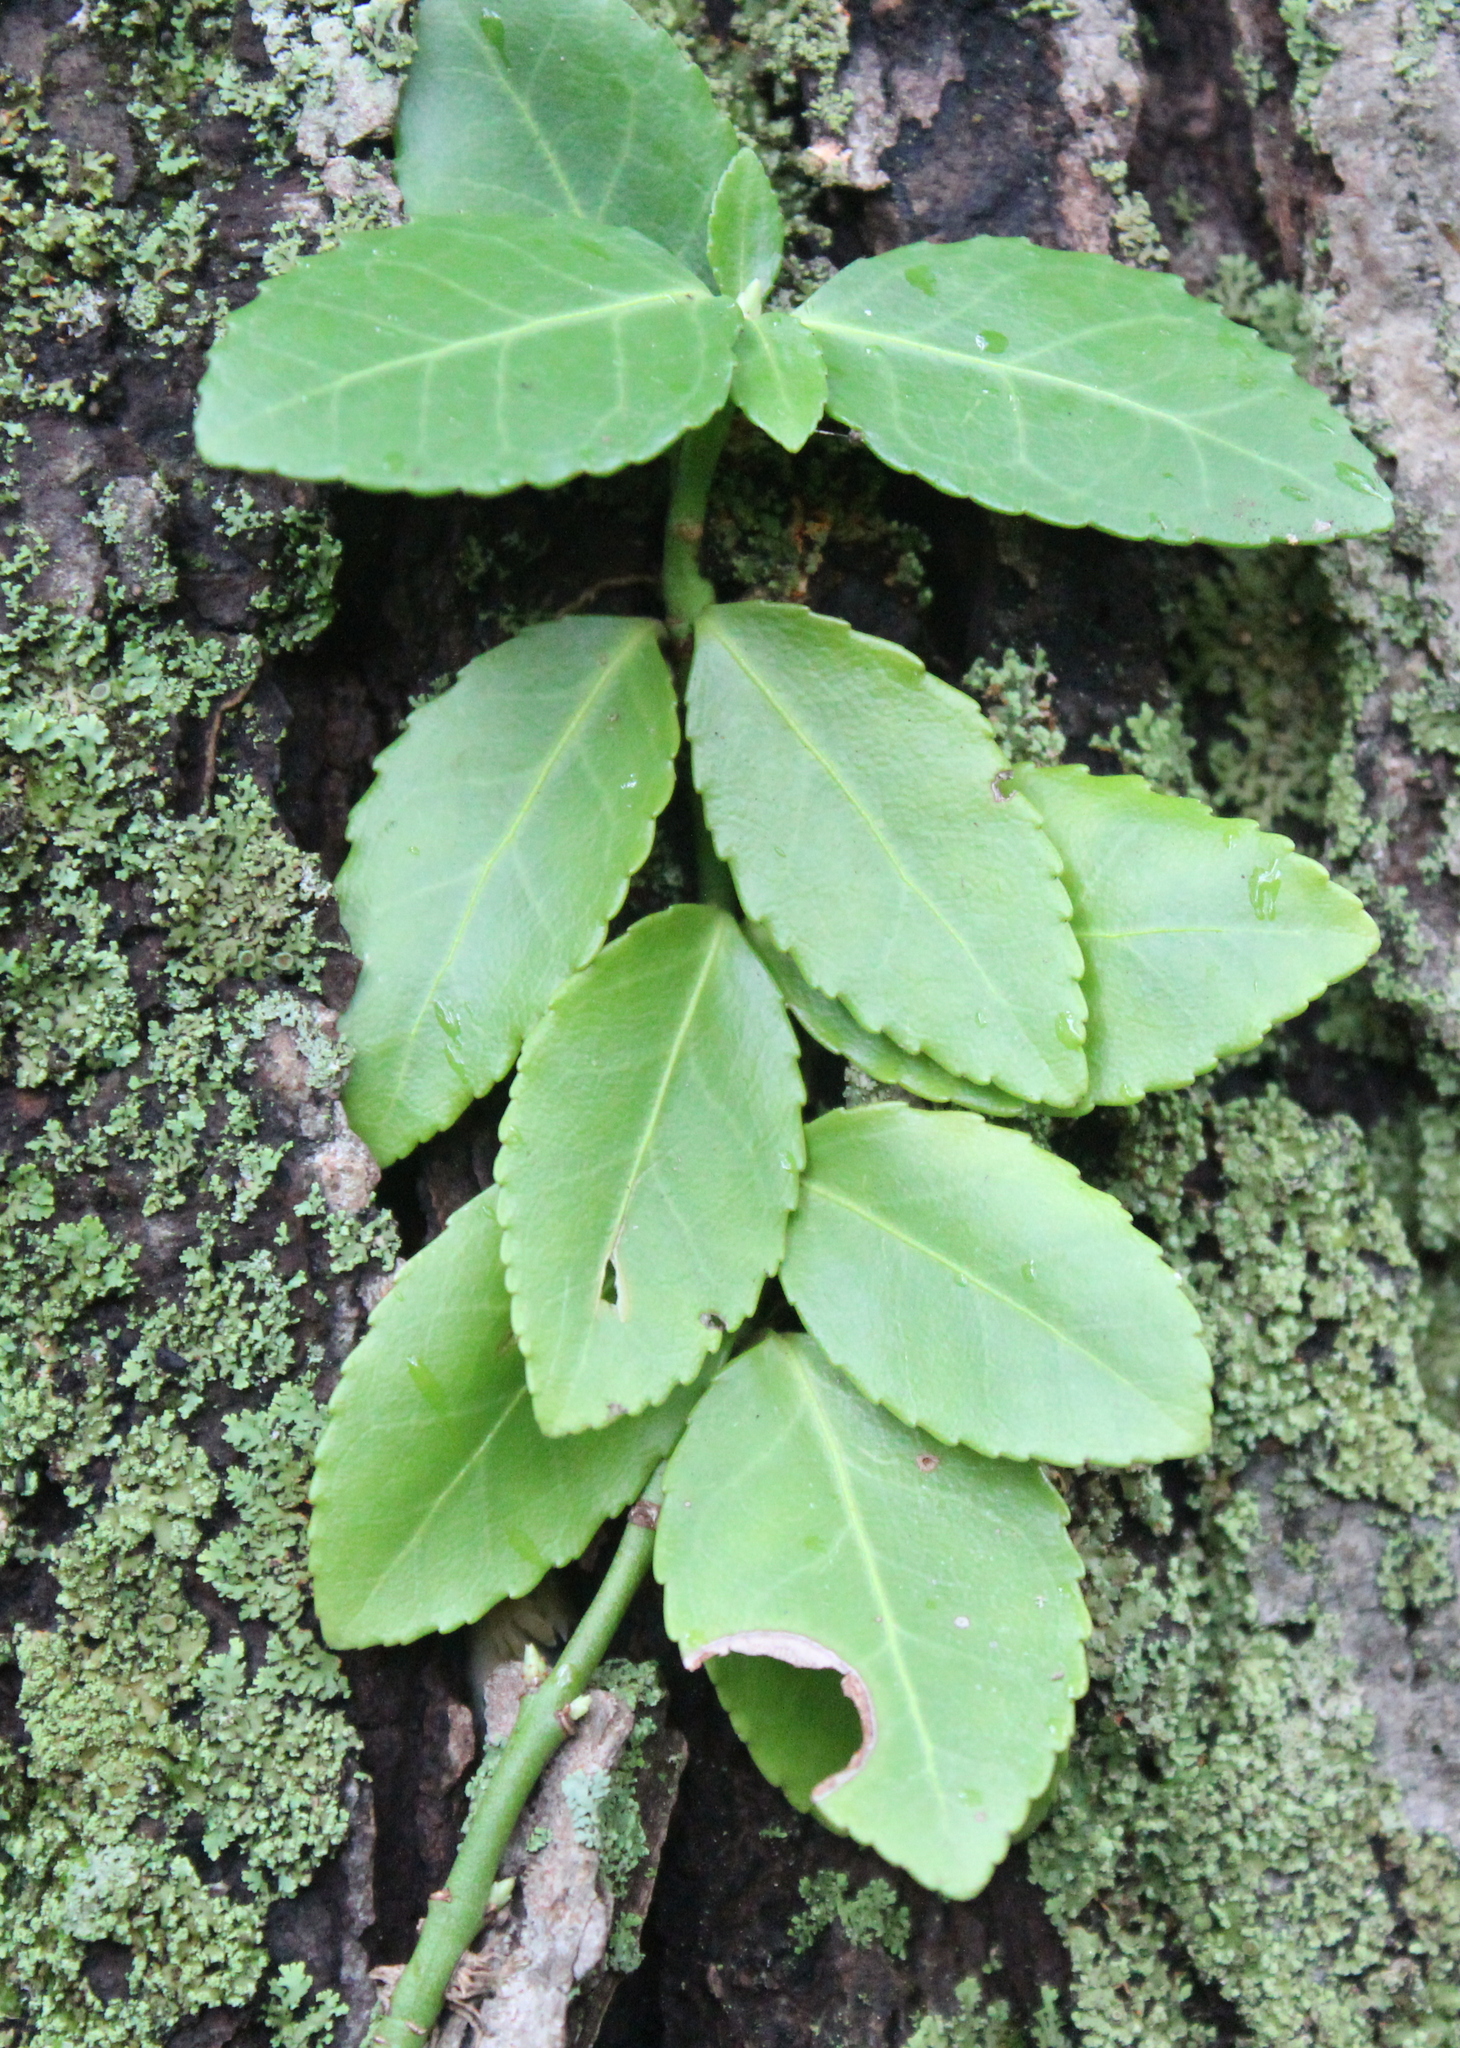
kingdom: Plantae
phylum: Tracheophyta
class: Magnoliopsida
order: Celastrales
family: Celastraceae
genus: Euonymus
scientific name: Euonymus fortunei
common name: Climbing euonymus
